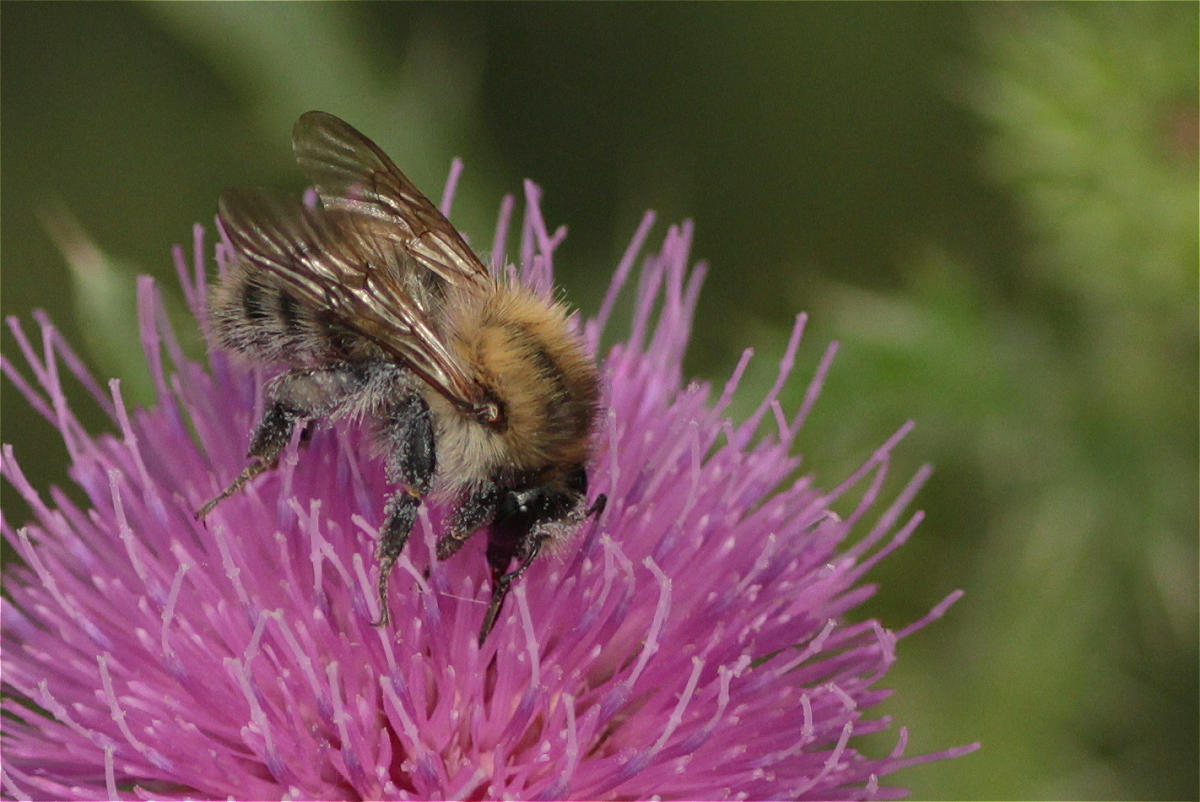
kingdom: Animalia
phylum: Arthropoda
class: Insecta
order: Hymenoptera
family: Apidae
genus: Bombus
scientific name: Bombus pascuorum
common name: Common carder bee
